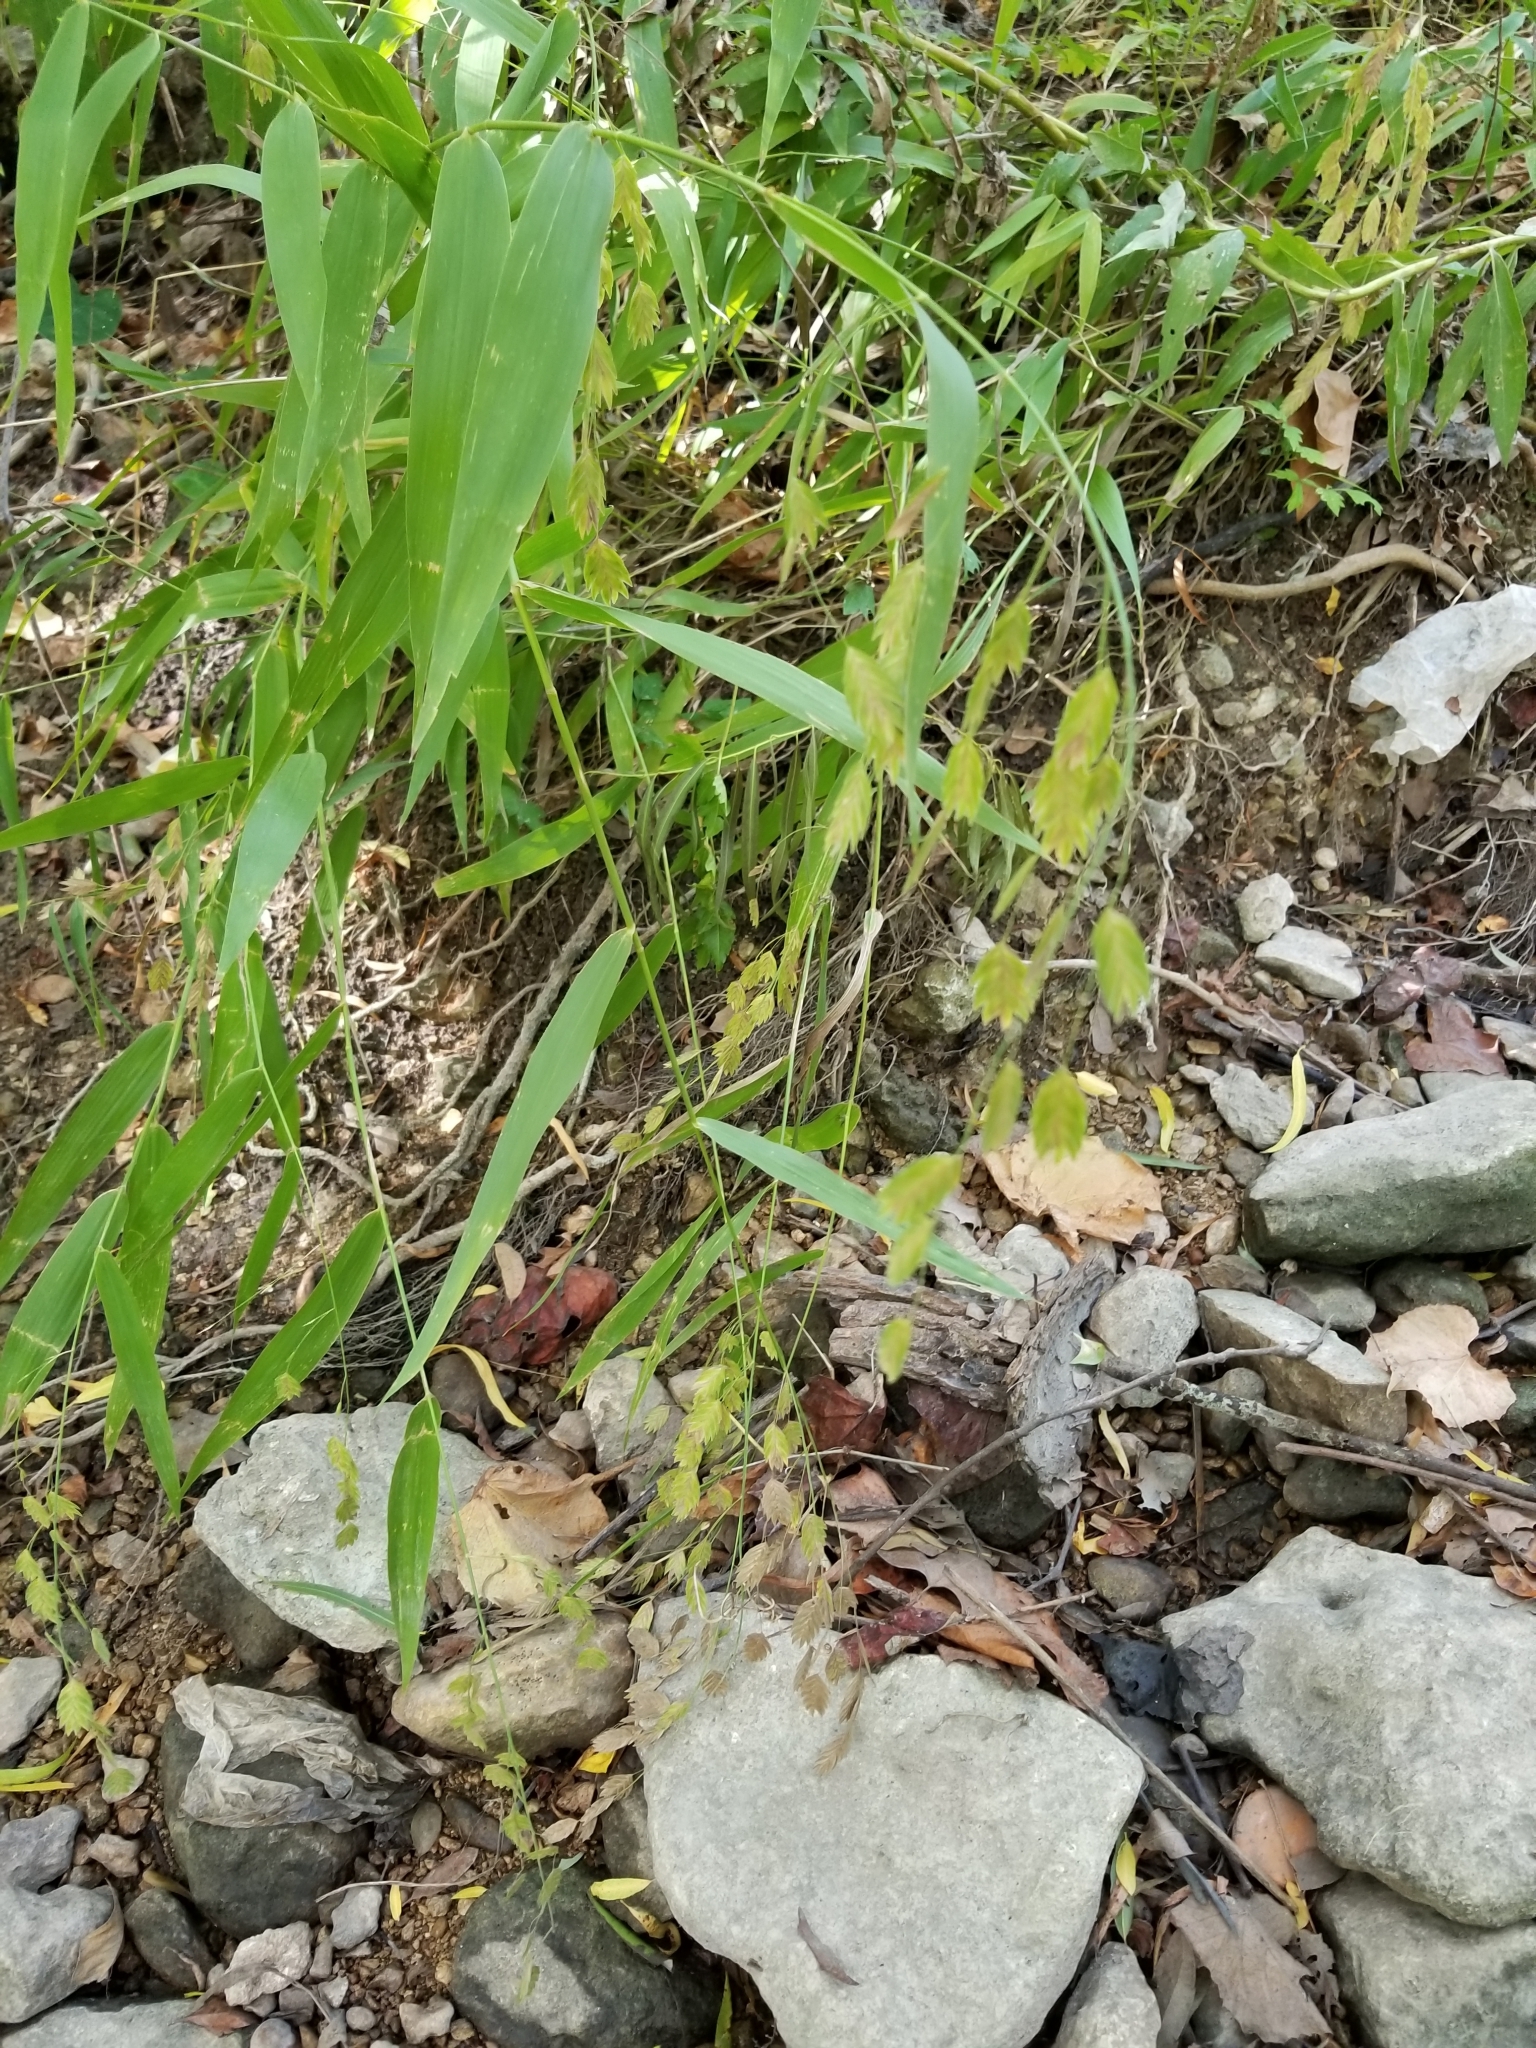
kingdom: Plantae
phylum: Tracheophyta
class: Liliopsida
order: Poales
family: Poaceae
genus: Chasmanthium
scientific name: Chasmanthium latifolium
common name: Broad-leaved chasmanthium
